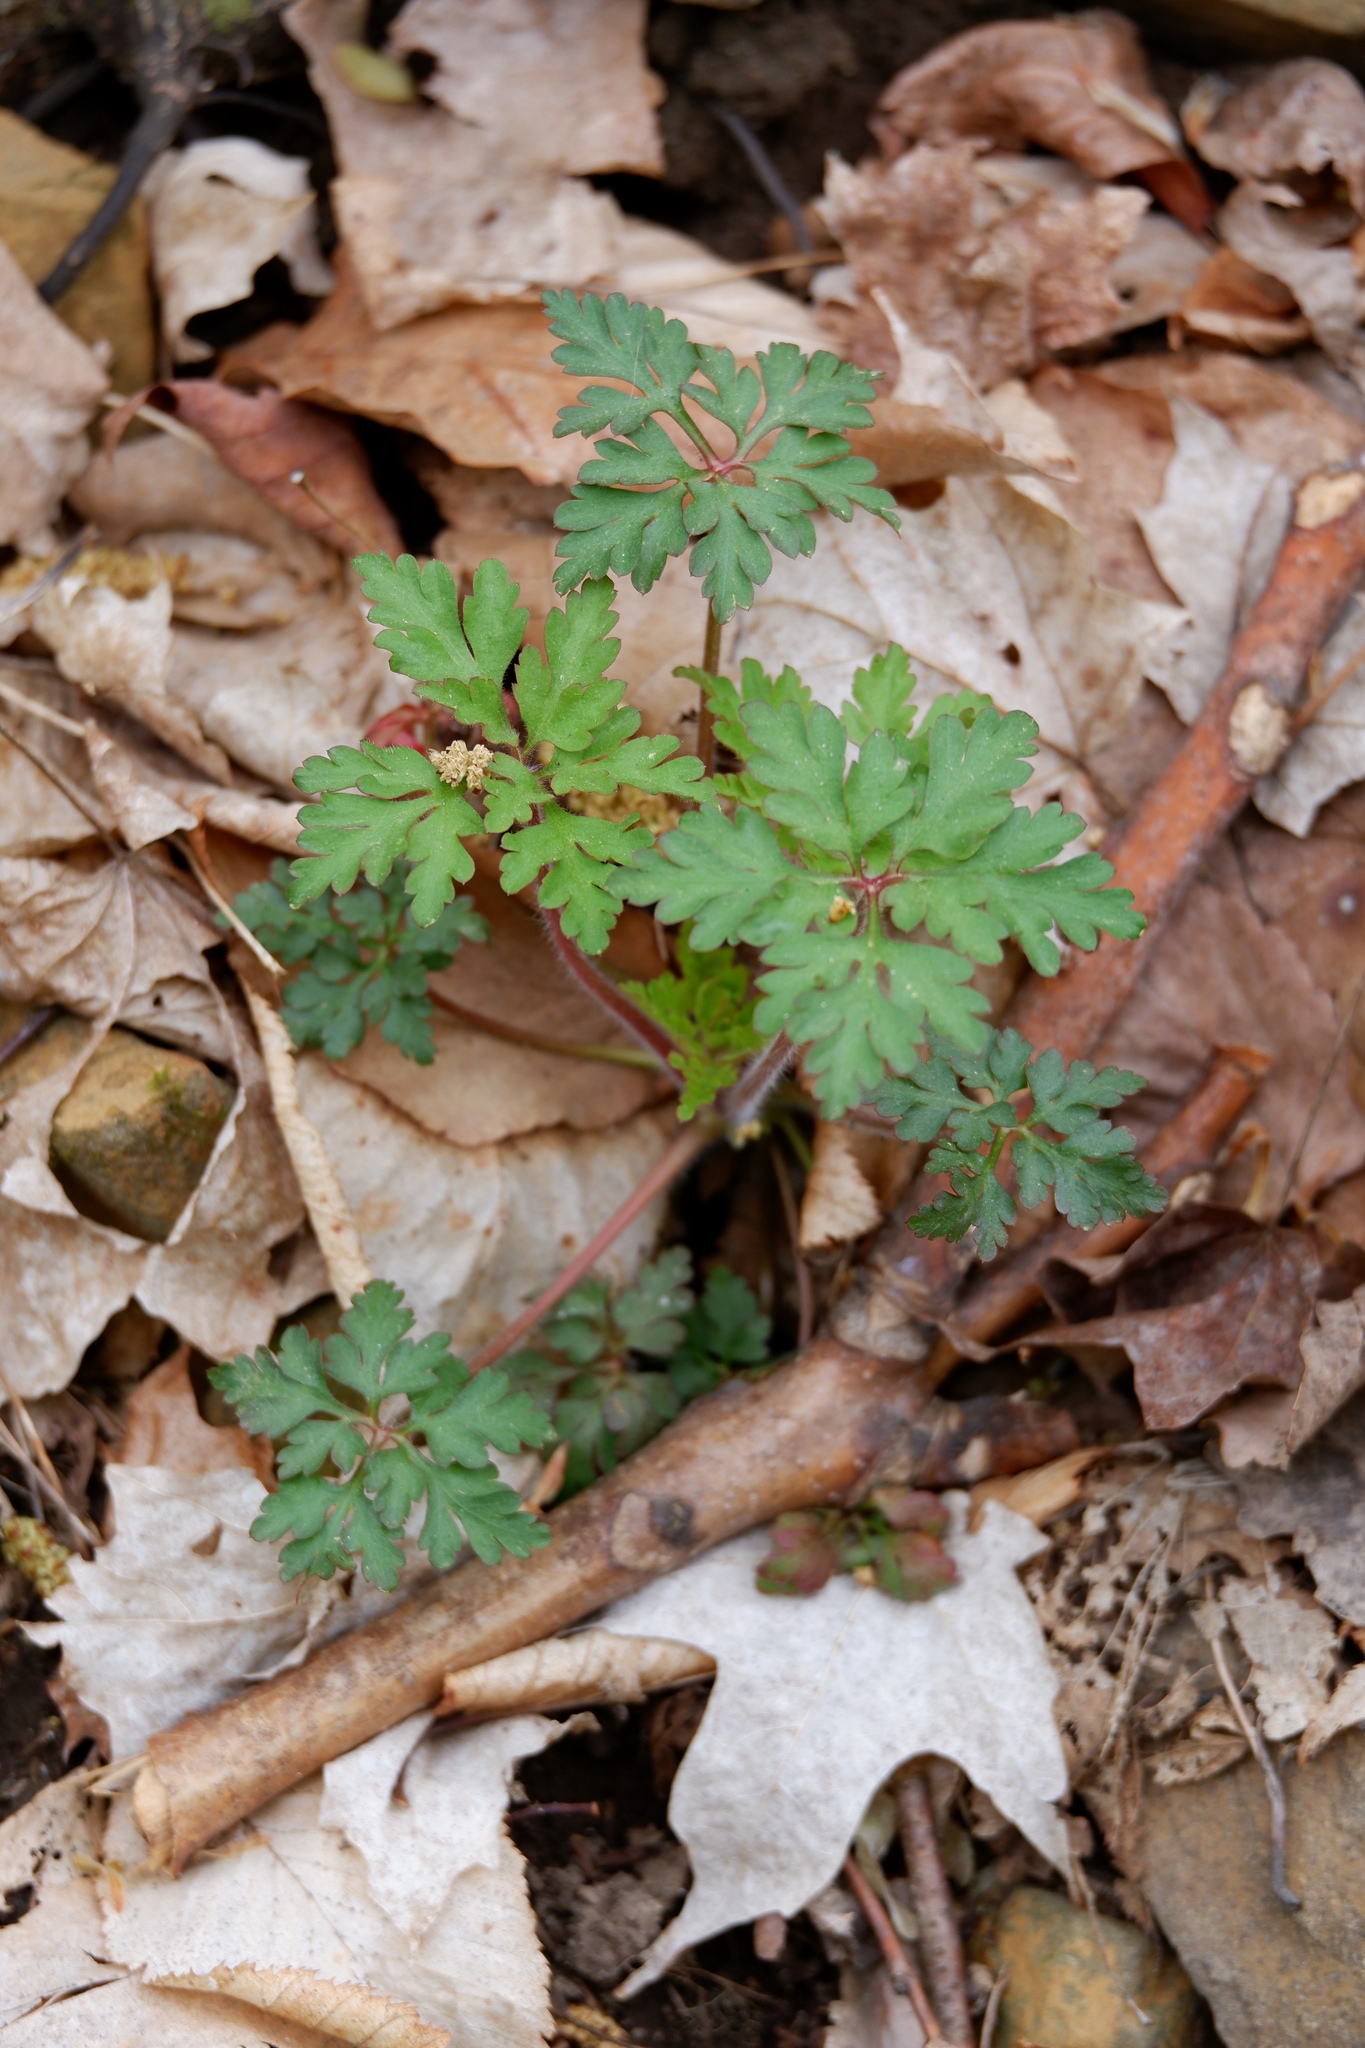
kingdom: Plantae
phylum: Tracheophyta
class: Magnoliopsida
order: Geraniales
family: Geraniaceae
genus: Geranium
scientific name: Geranium robertianum
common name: Herb-robert
